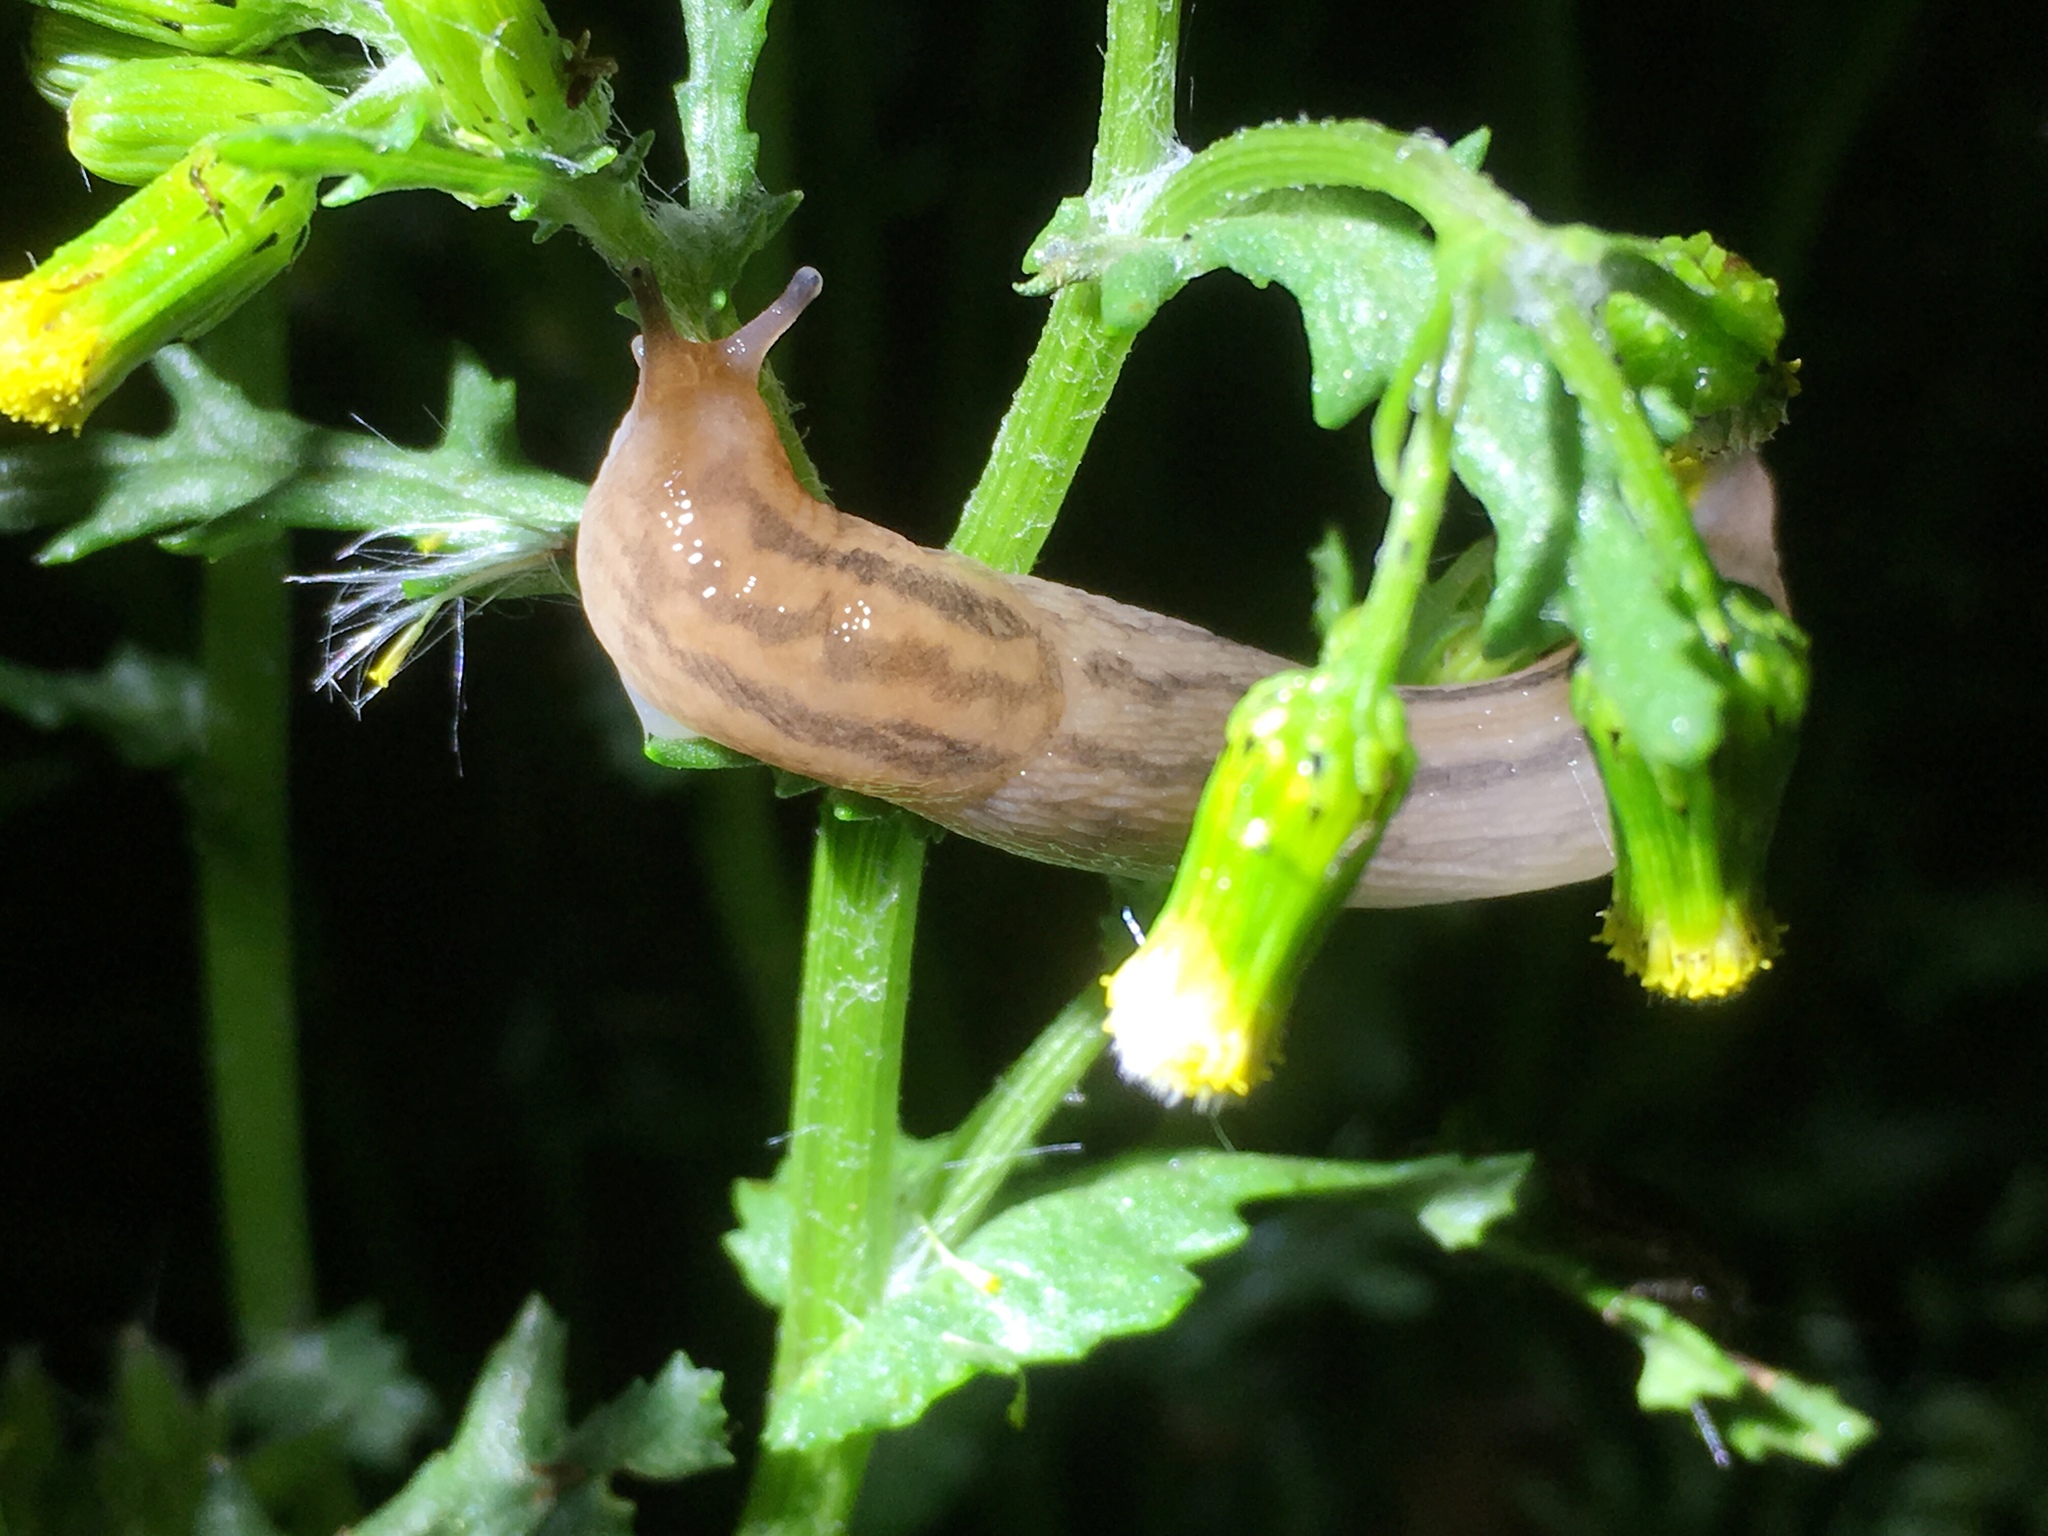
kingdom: Animalia
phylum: Mollusca
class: Gastropoda
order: Stylommatophora
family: Limacidae
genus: Ambigolimax
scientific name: Ambigolimax
